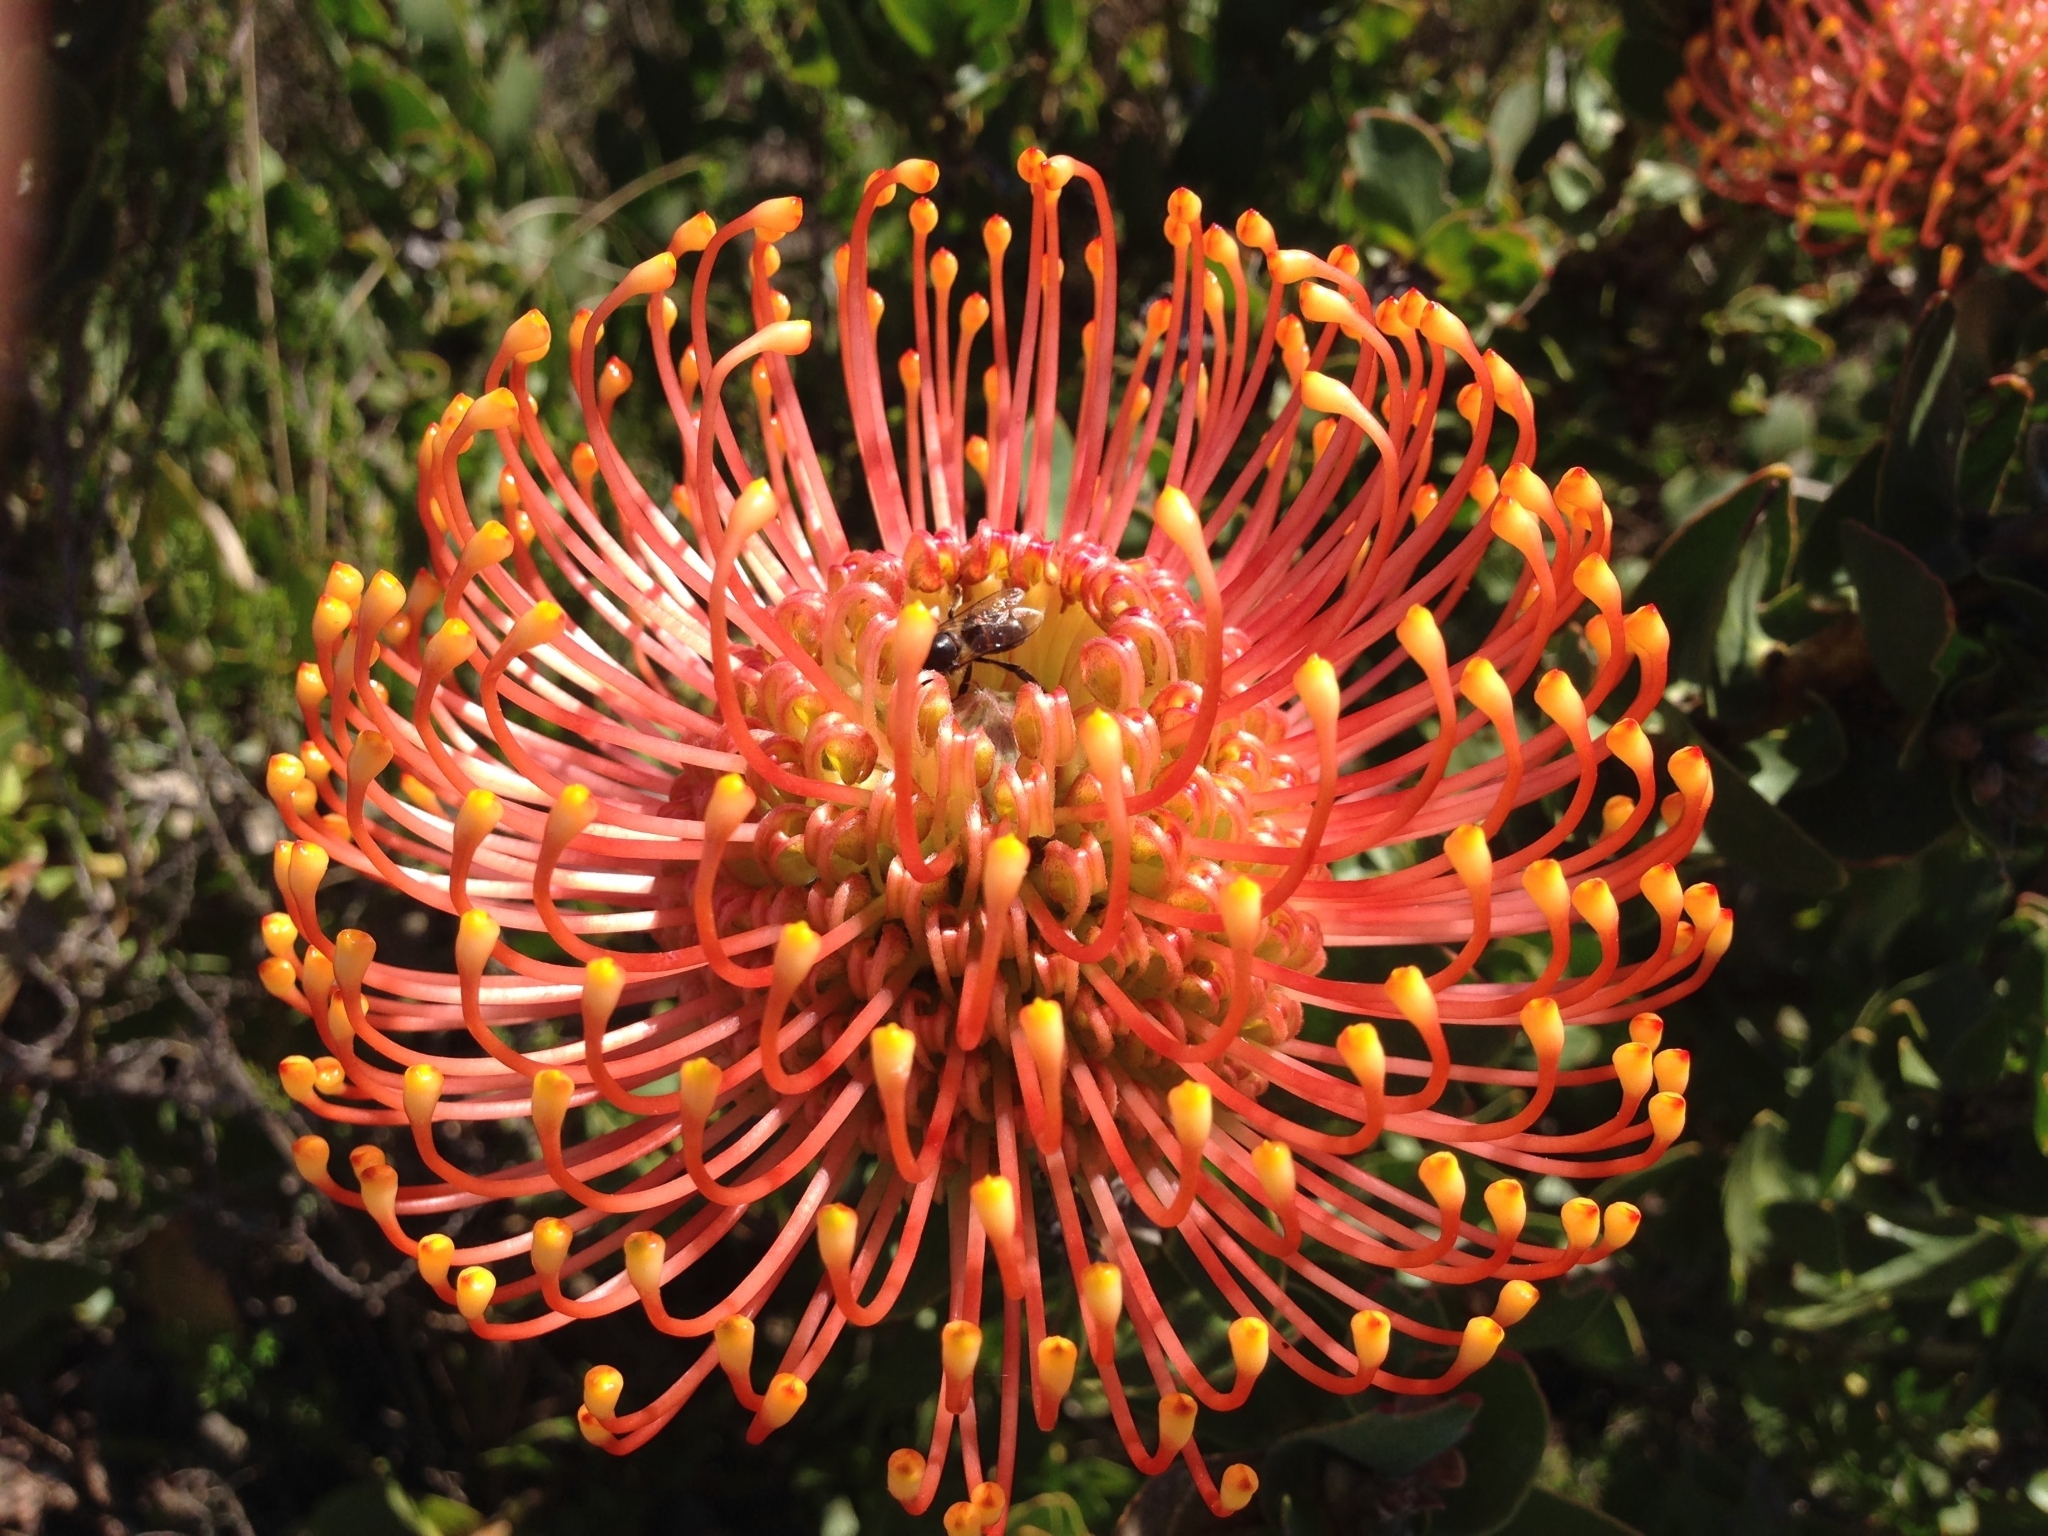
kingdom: Plantae
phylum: Tracheophyta
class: Magnoliopsida
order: Proteales
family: Proteaceae
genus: Leucospermum
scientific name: Leucospermum cordifolium
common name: Red pincushion-protea
